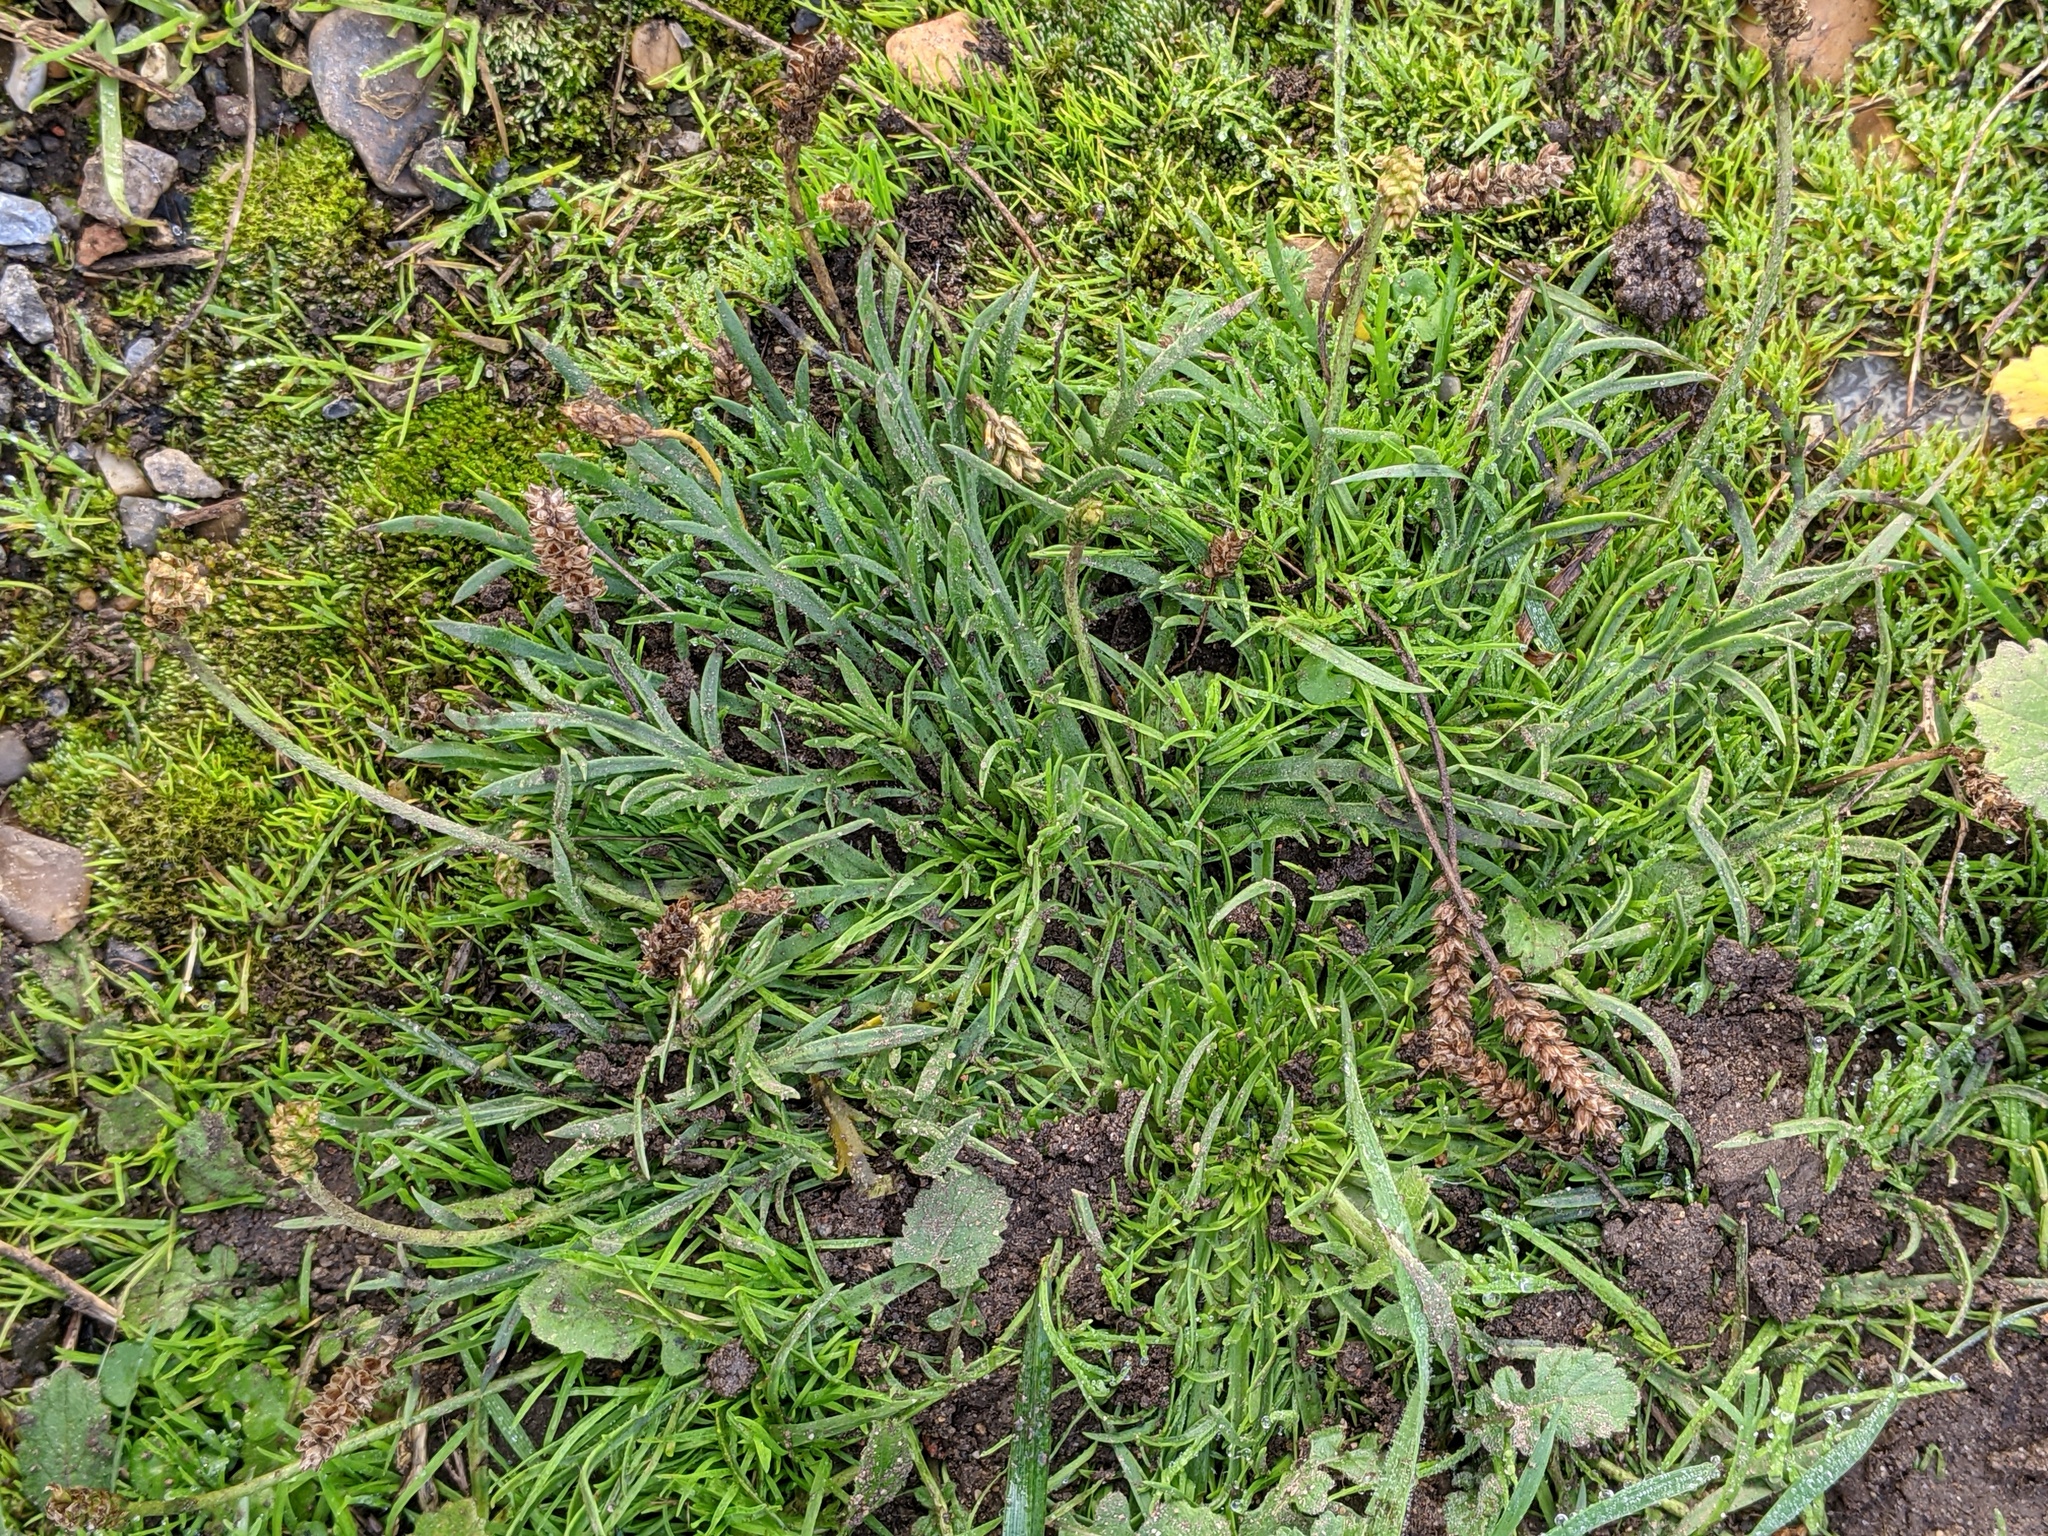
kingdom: Plantae
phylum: Tracheophyta
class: Magnoliopsida
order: Lamiales
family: Plantaginaceae
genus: Plantago
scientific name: Plantago coronopus
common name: Buck's-horn plantain
